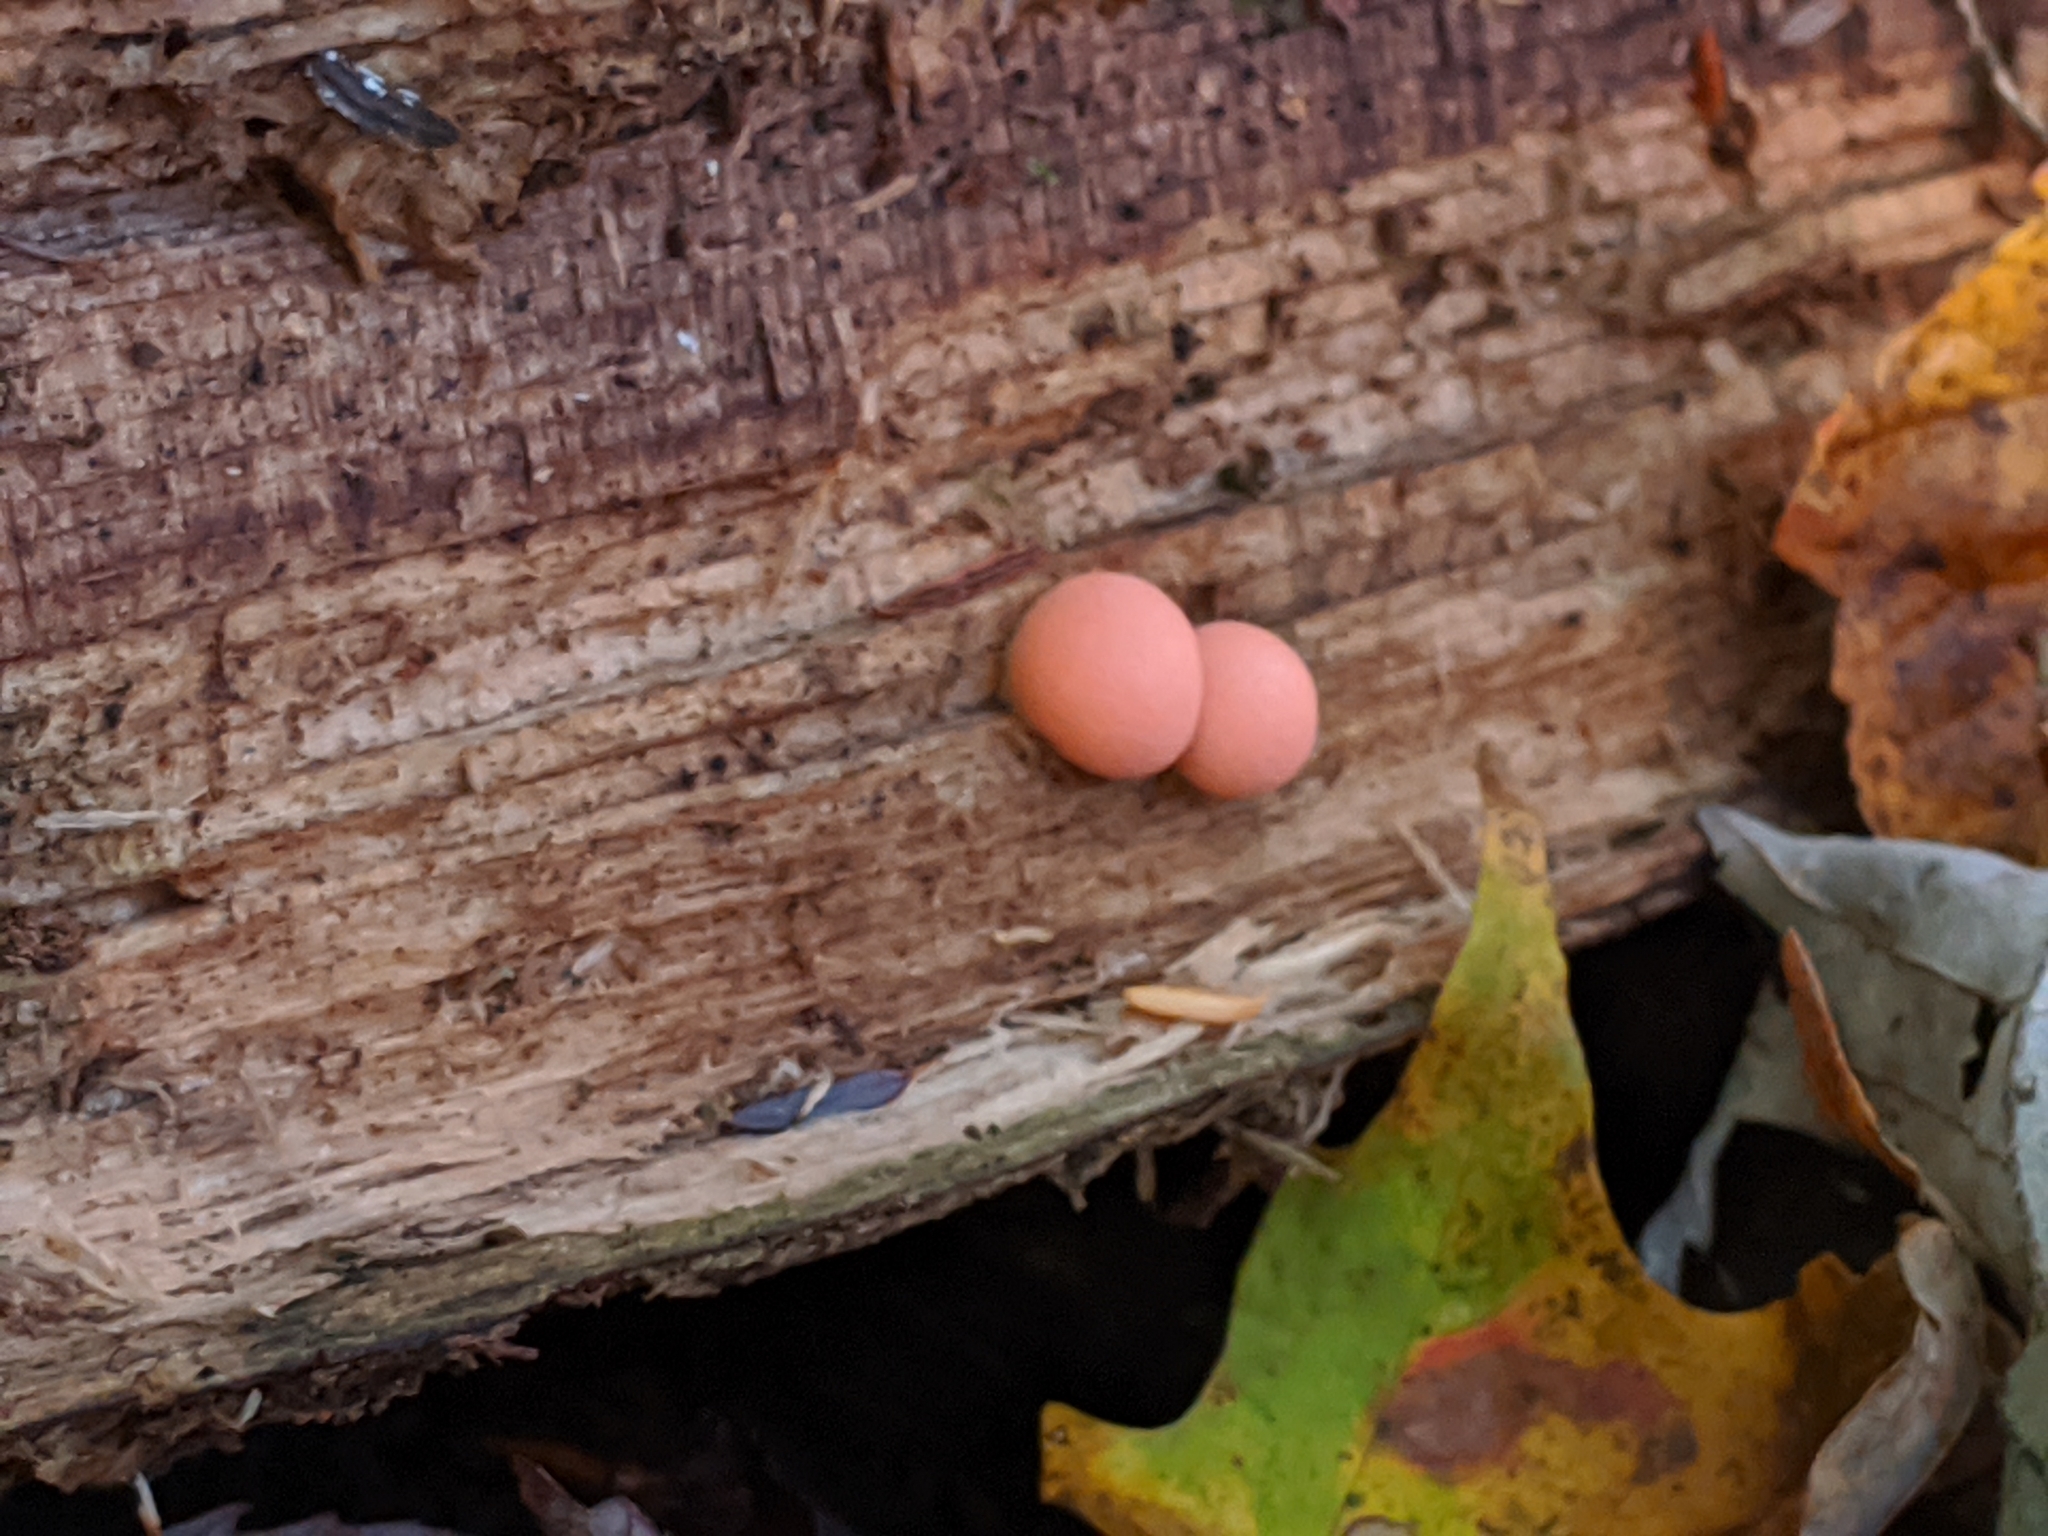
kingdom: Protozoa
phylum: Mycetozoa
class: Myxomycetes
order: Cribrariales
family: Tubiferaceae
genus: Lycogala
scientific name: Lycogala epidendrum
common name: Wolf's milk
